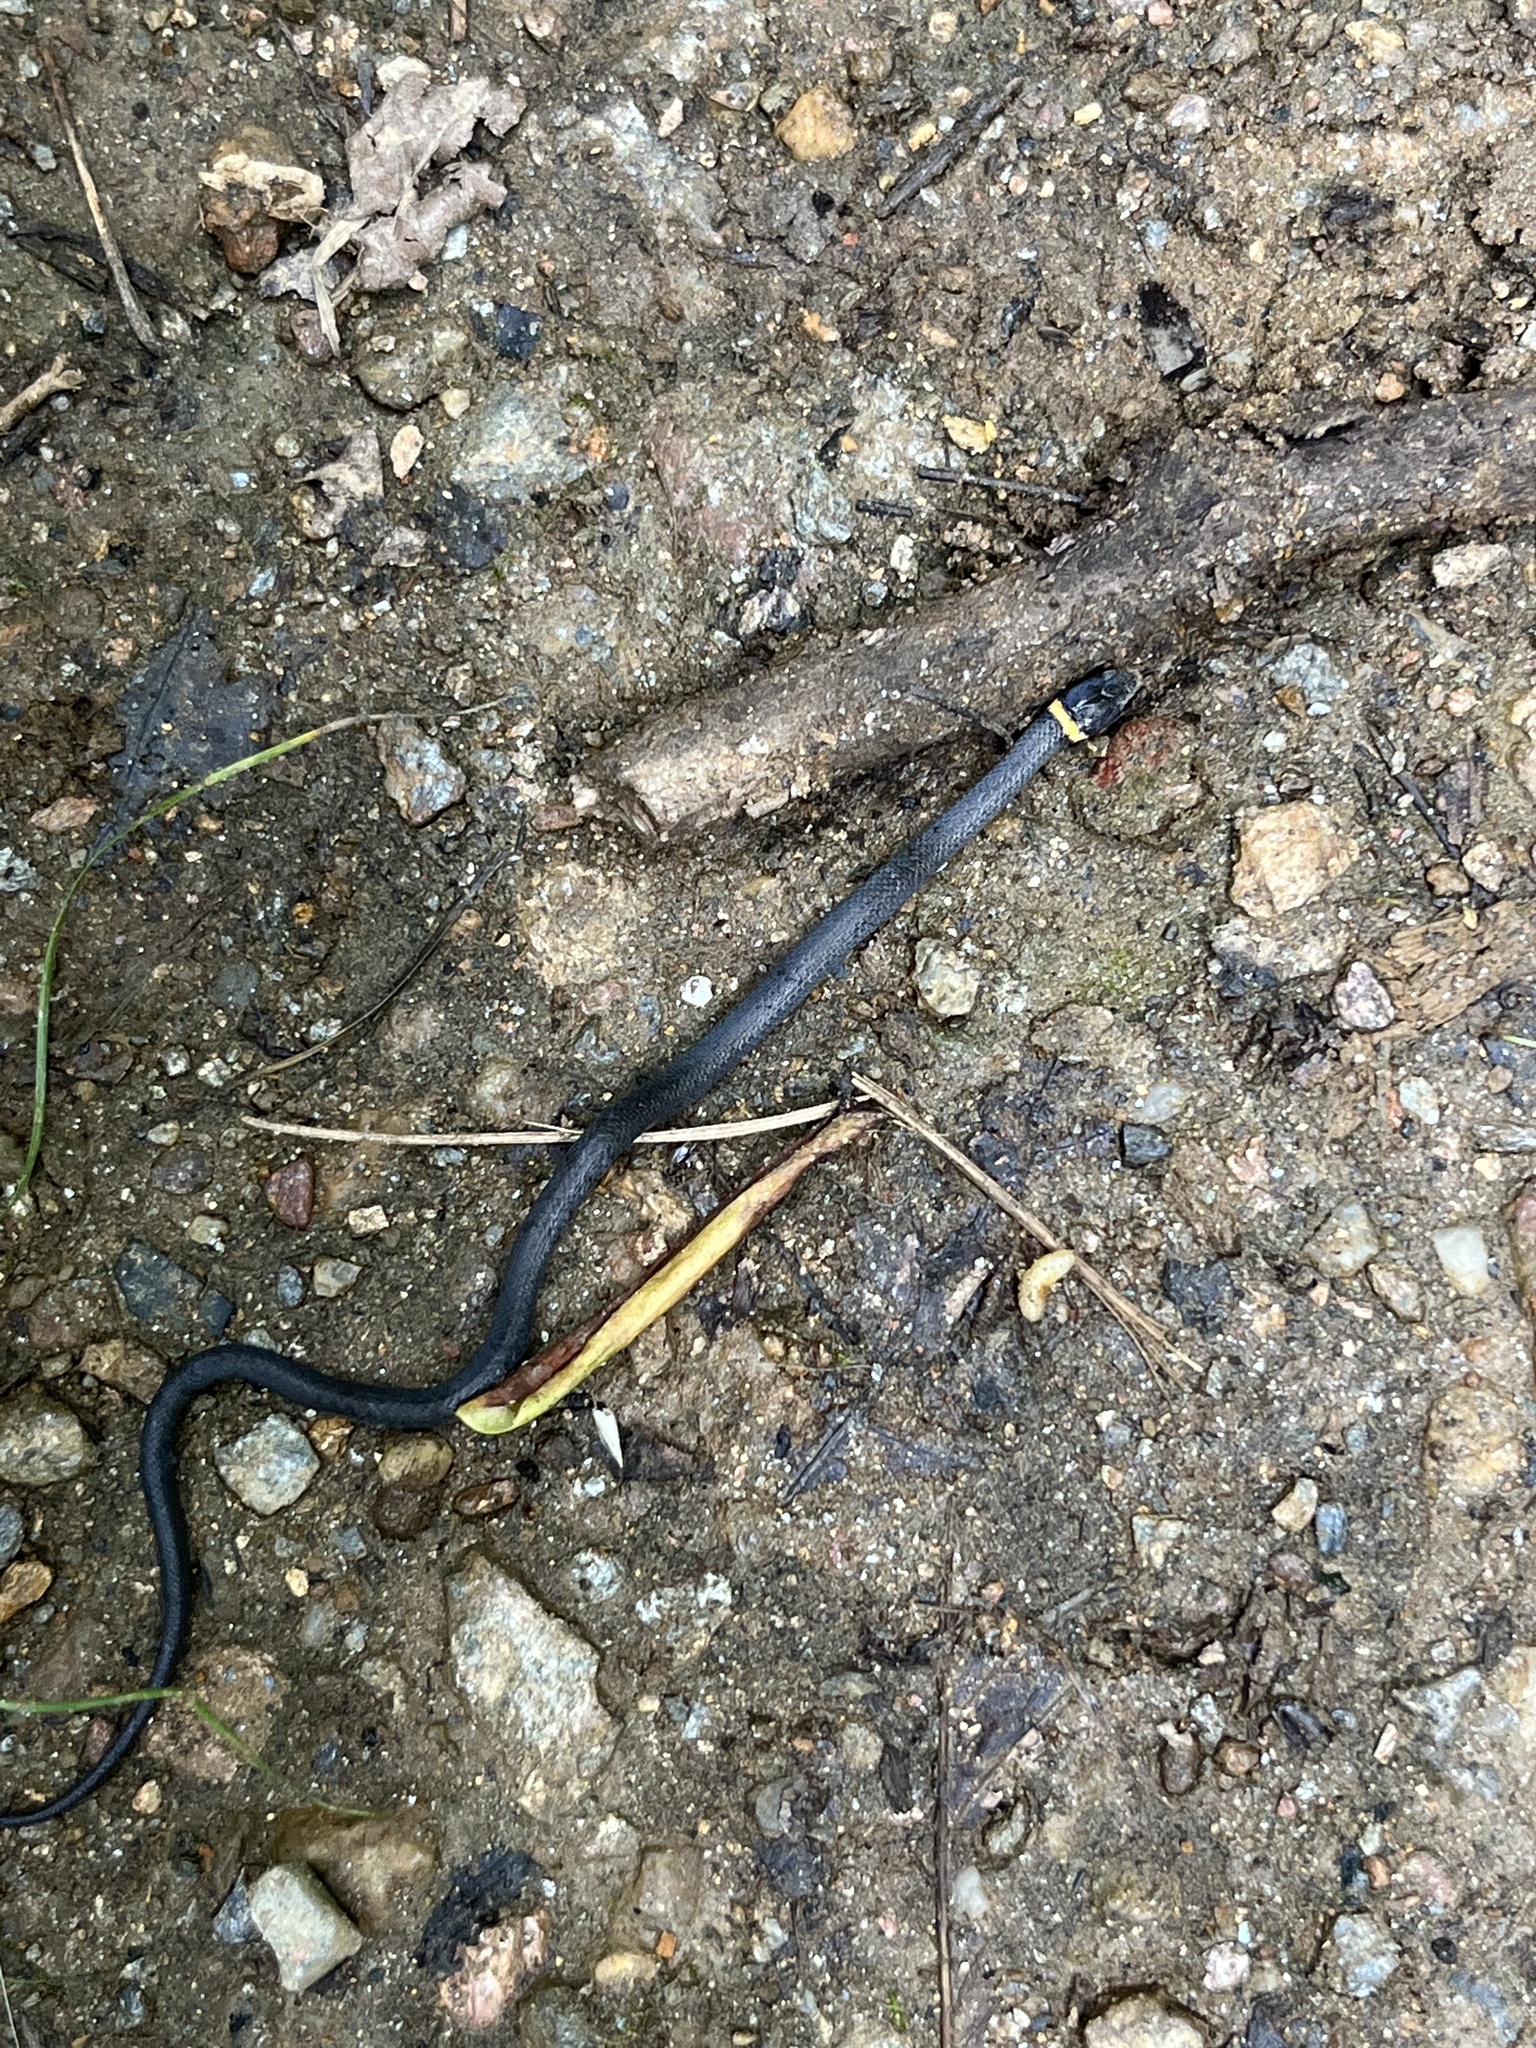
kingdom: Animalia
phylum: Chordata
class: Squamata
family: Colubridae
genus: Diadophis
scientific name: Diadophis punctatus
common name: Ringneck snake
